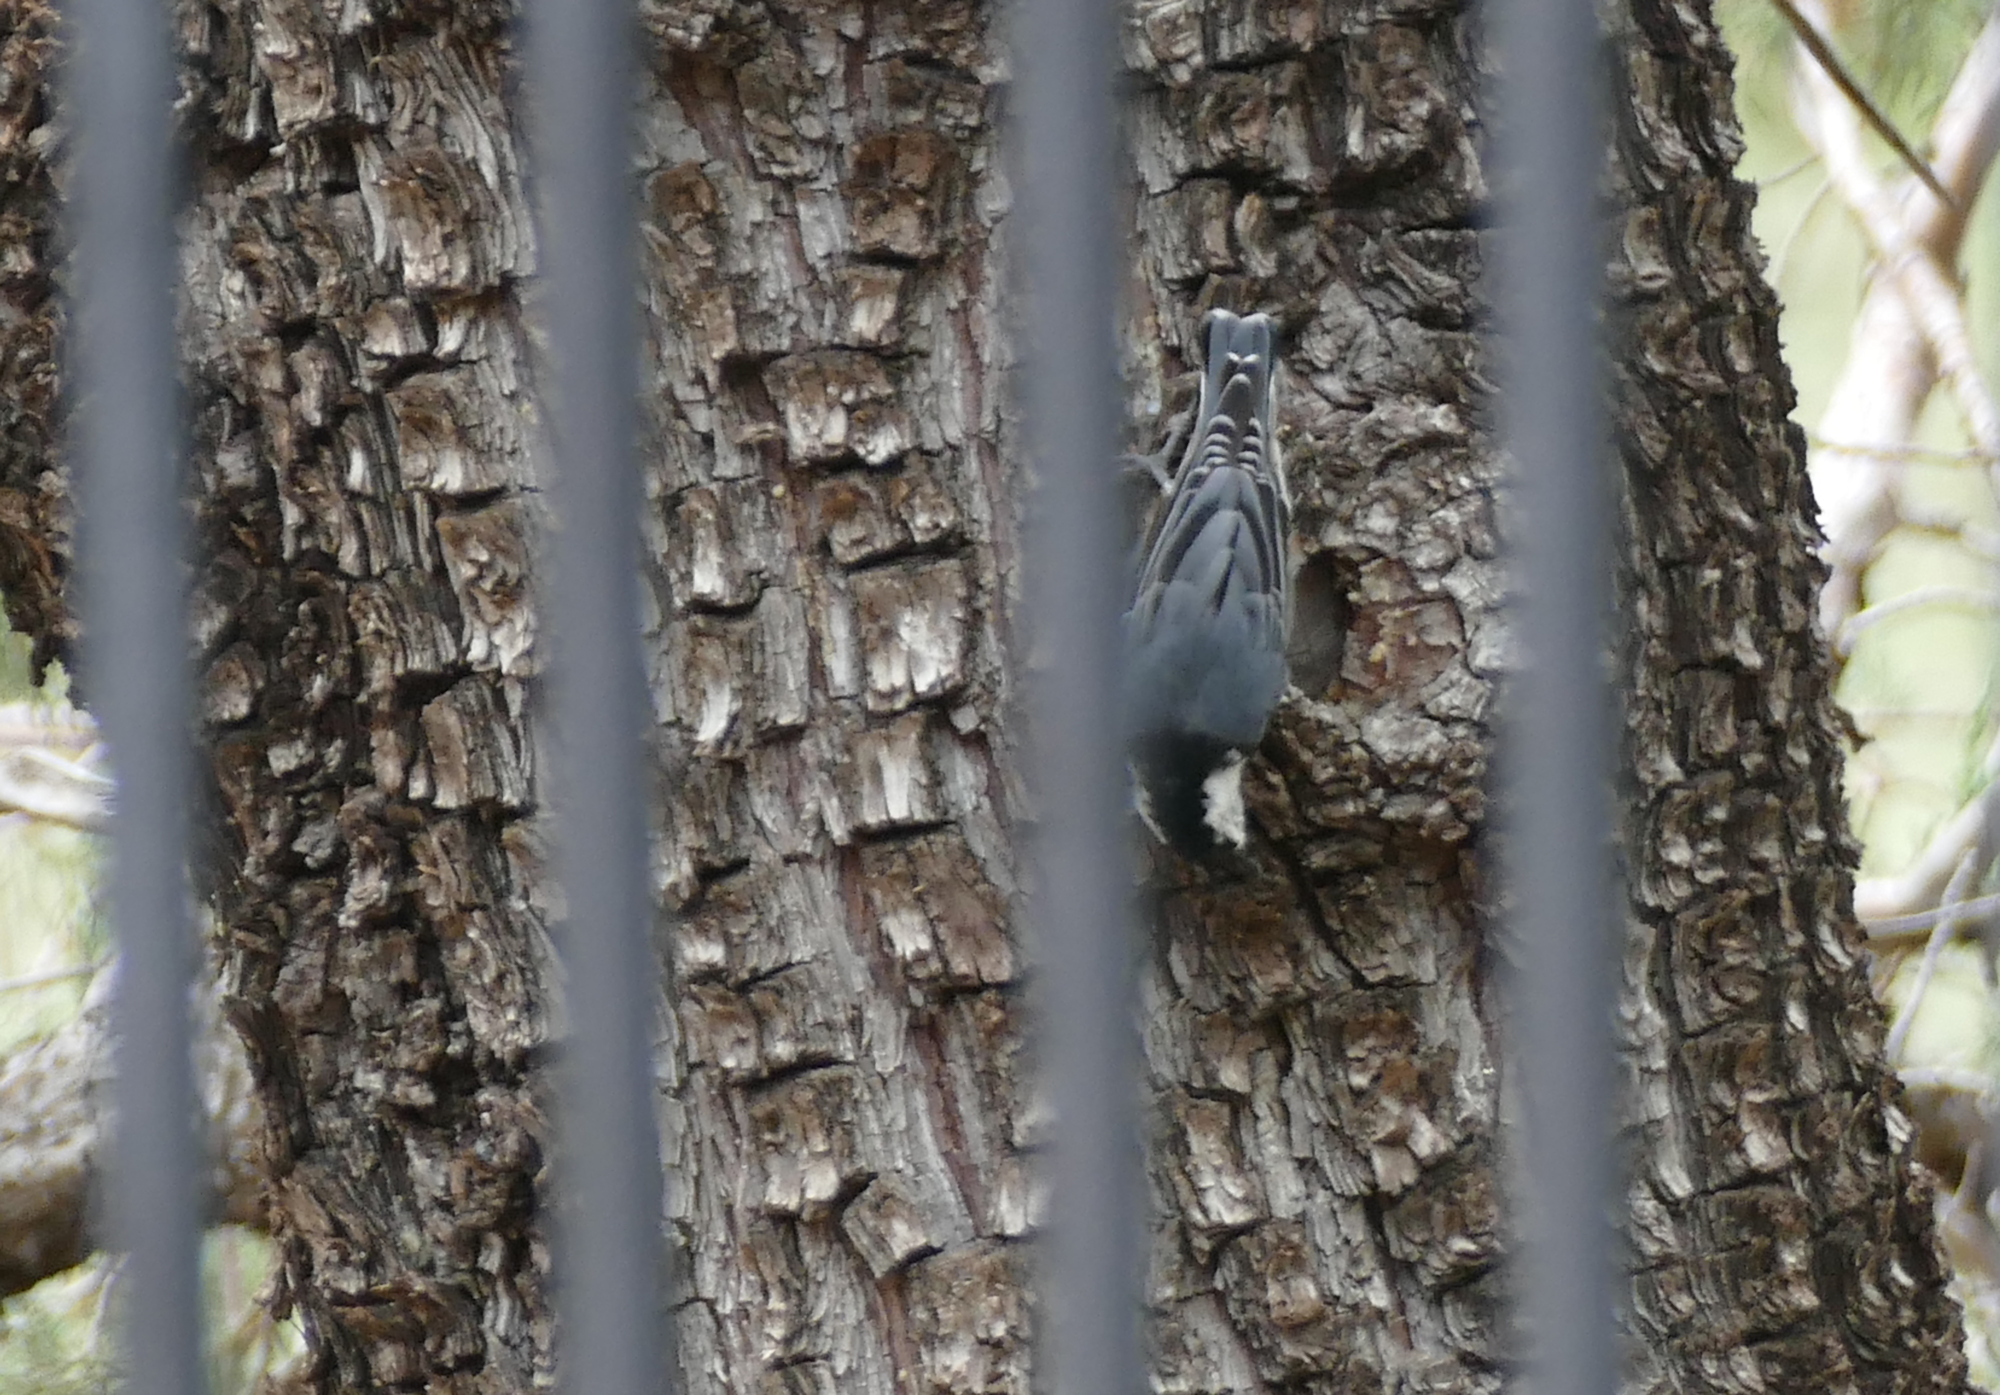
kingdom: Animalia
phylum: Chordata
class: Aves
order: Passeriformes
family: Sittidae
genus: Sitta
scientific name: Sitta carolinensis
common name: White-breasted nuthatch
